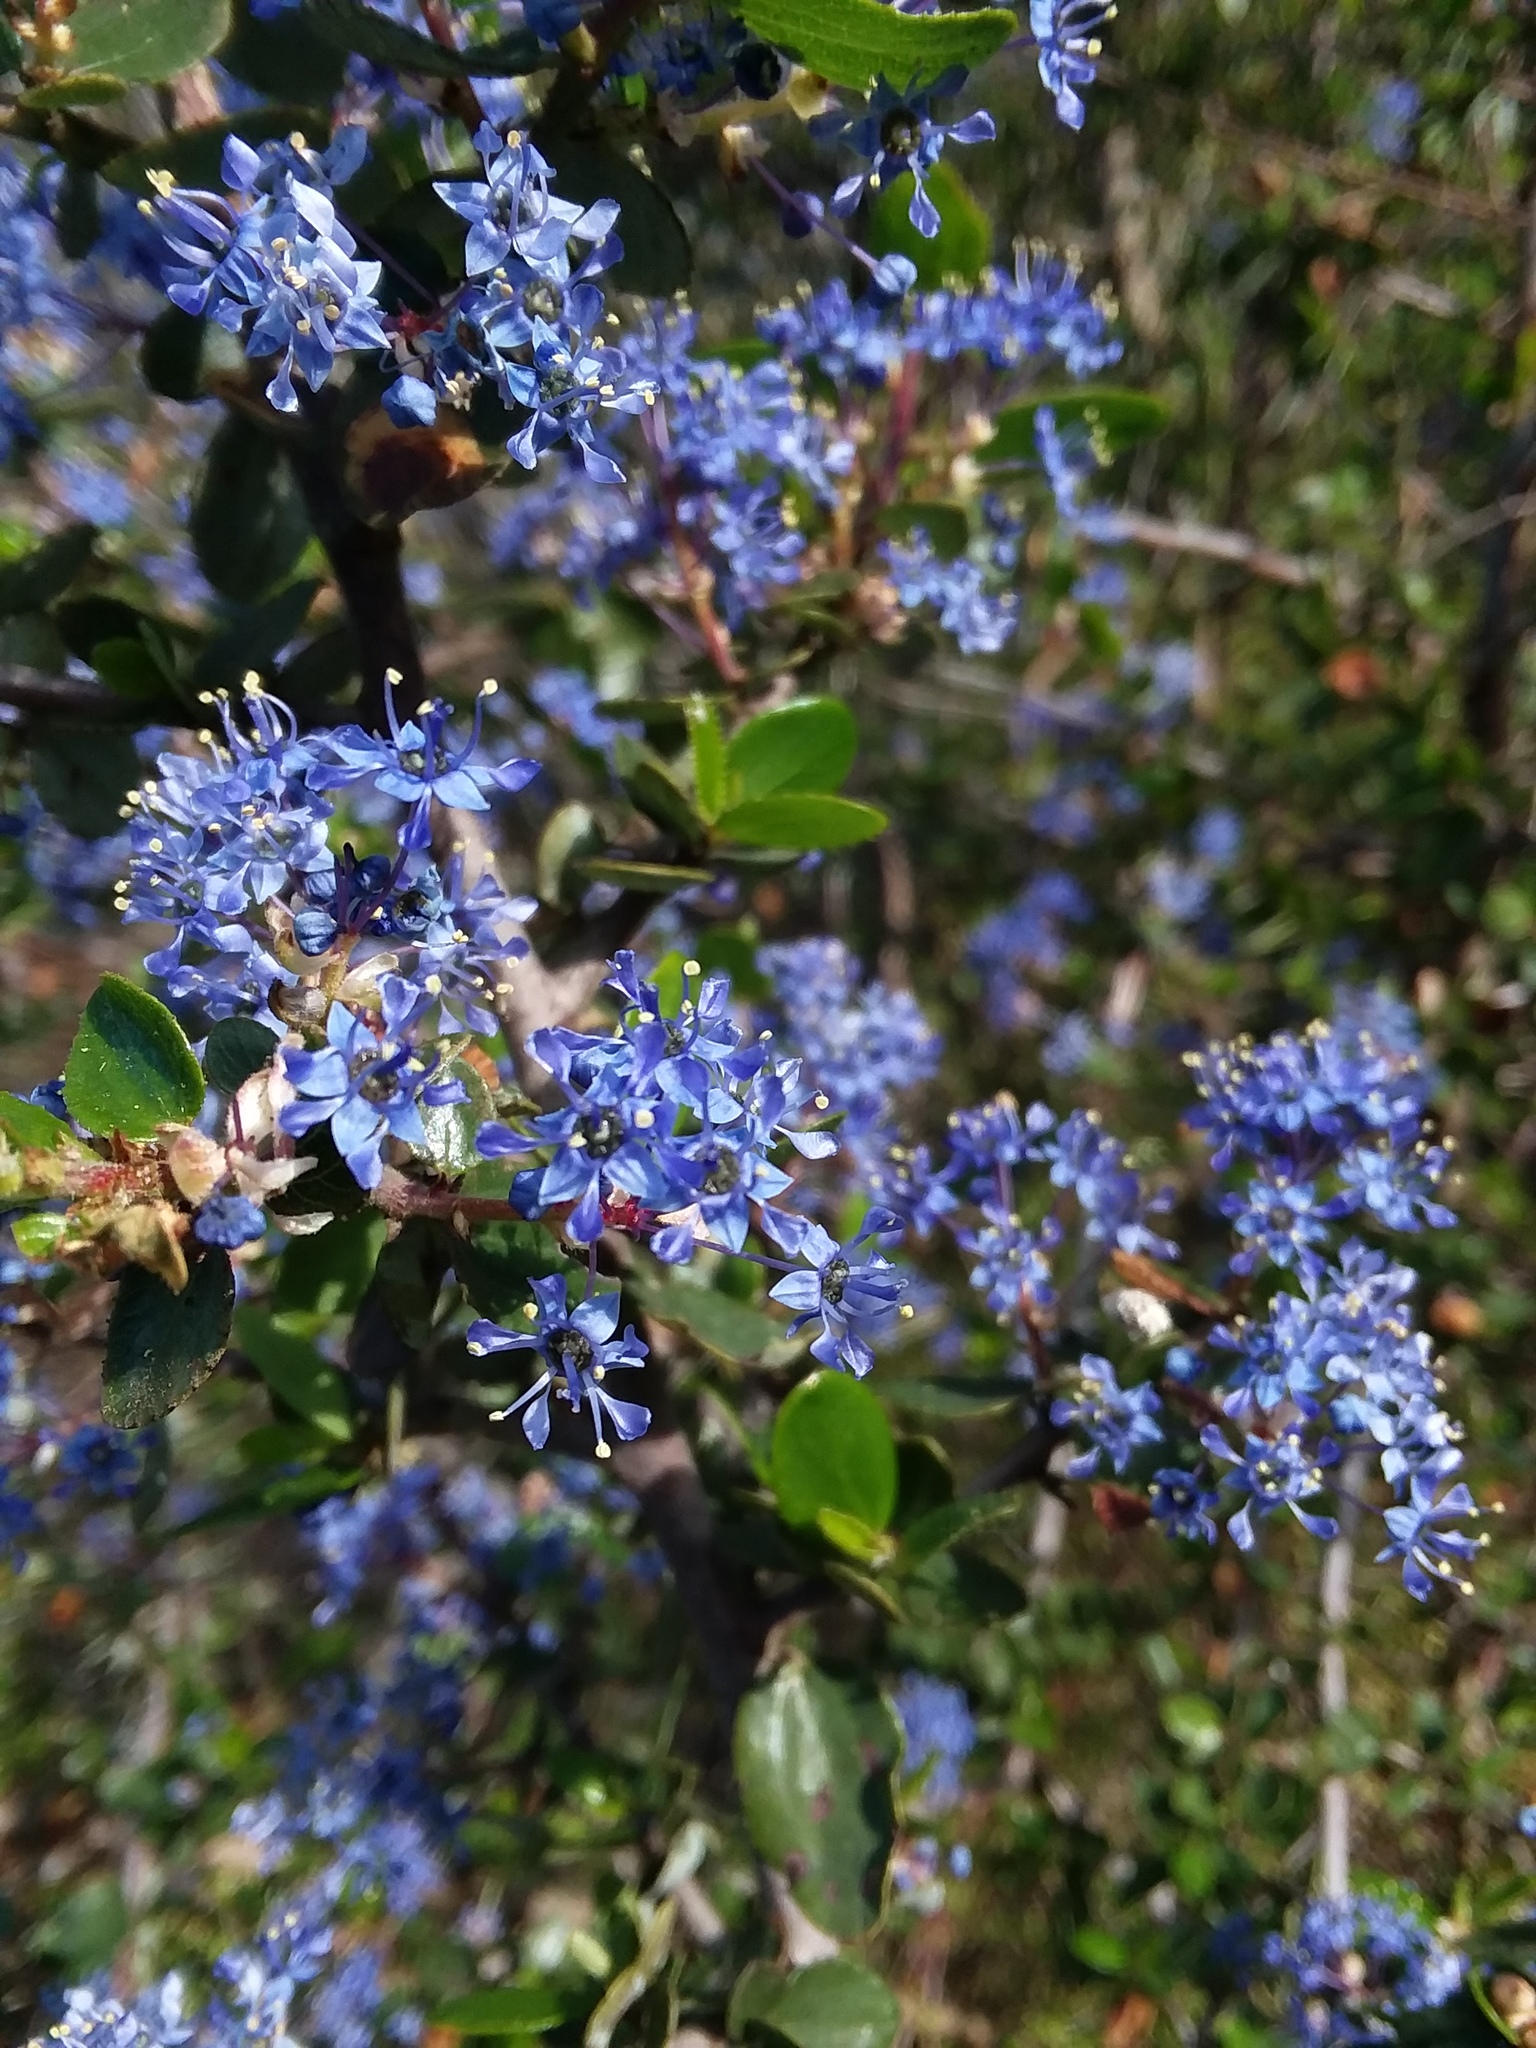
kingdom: Plantae
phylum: Tracheophyta
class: Magnoliopsida
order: Rosales
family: Rhamnaceae
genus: Ceanothus
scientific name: Ceanothus oliganthus
